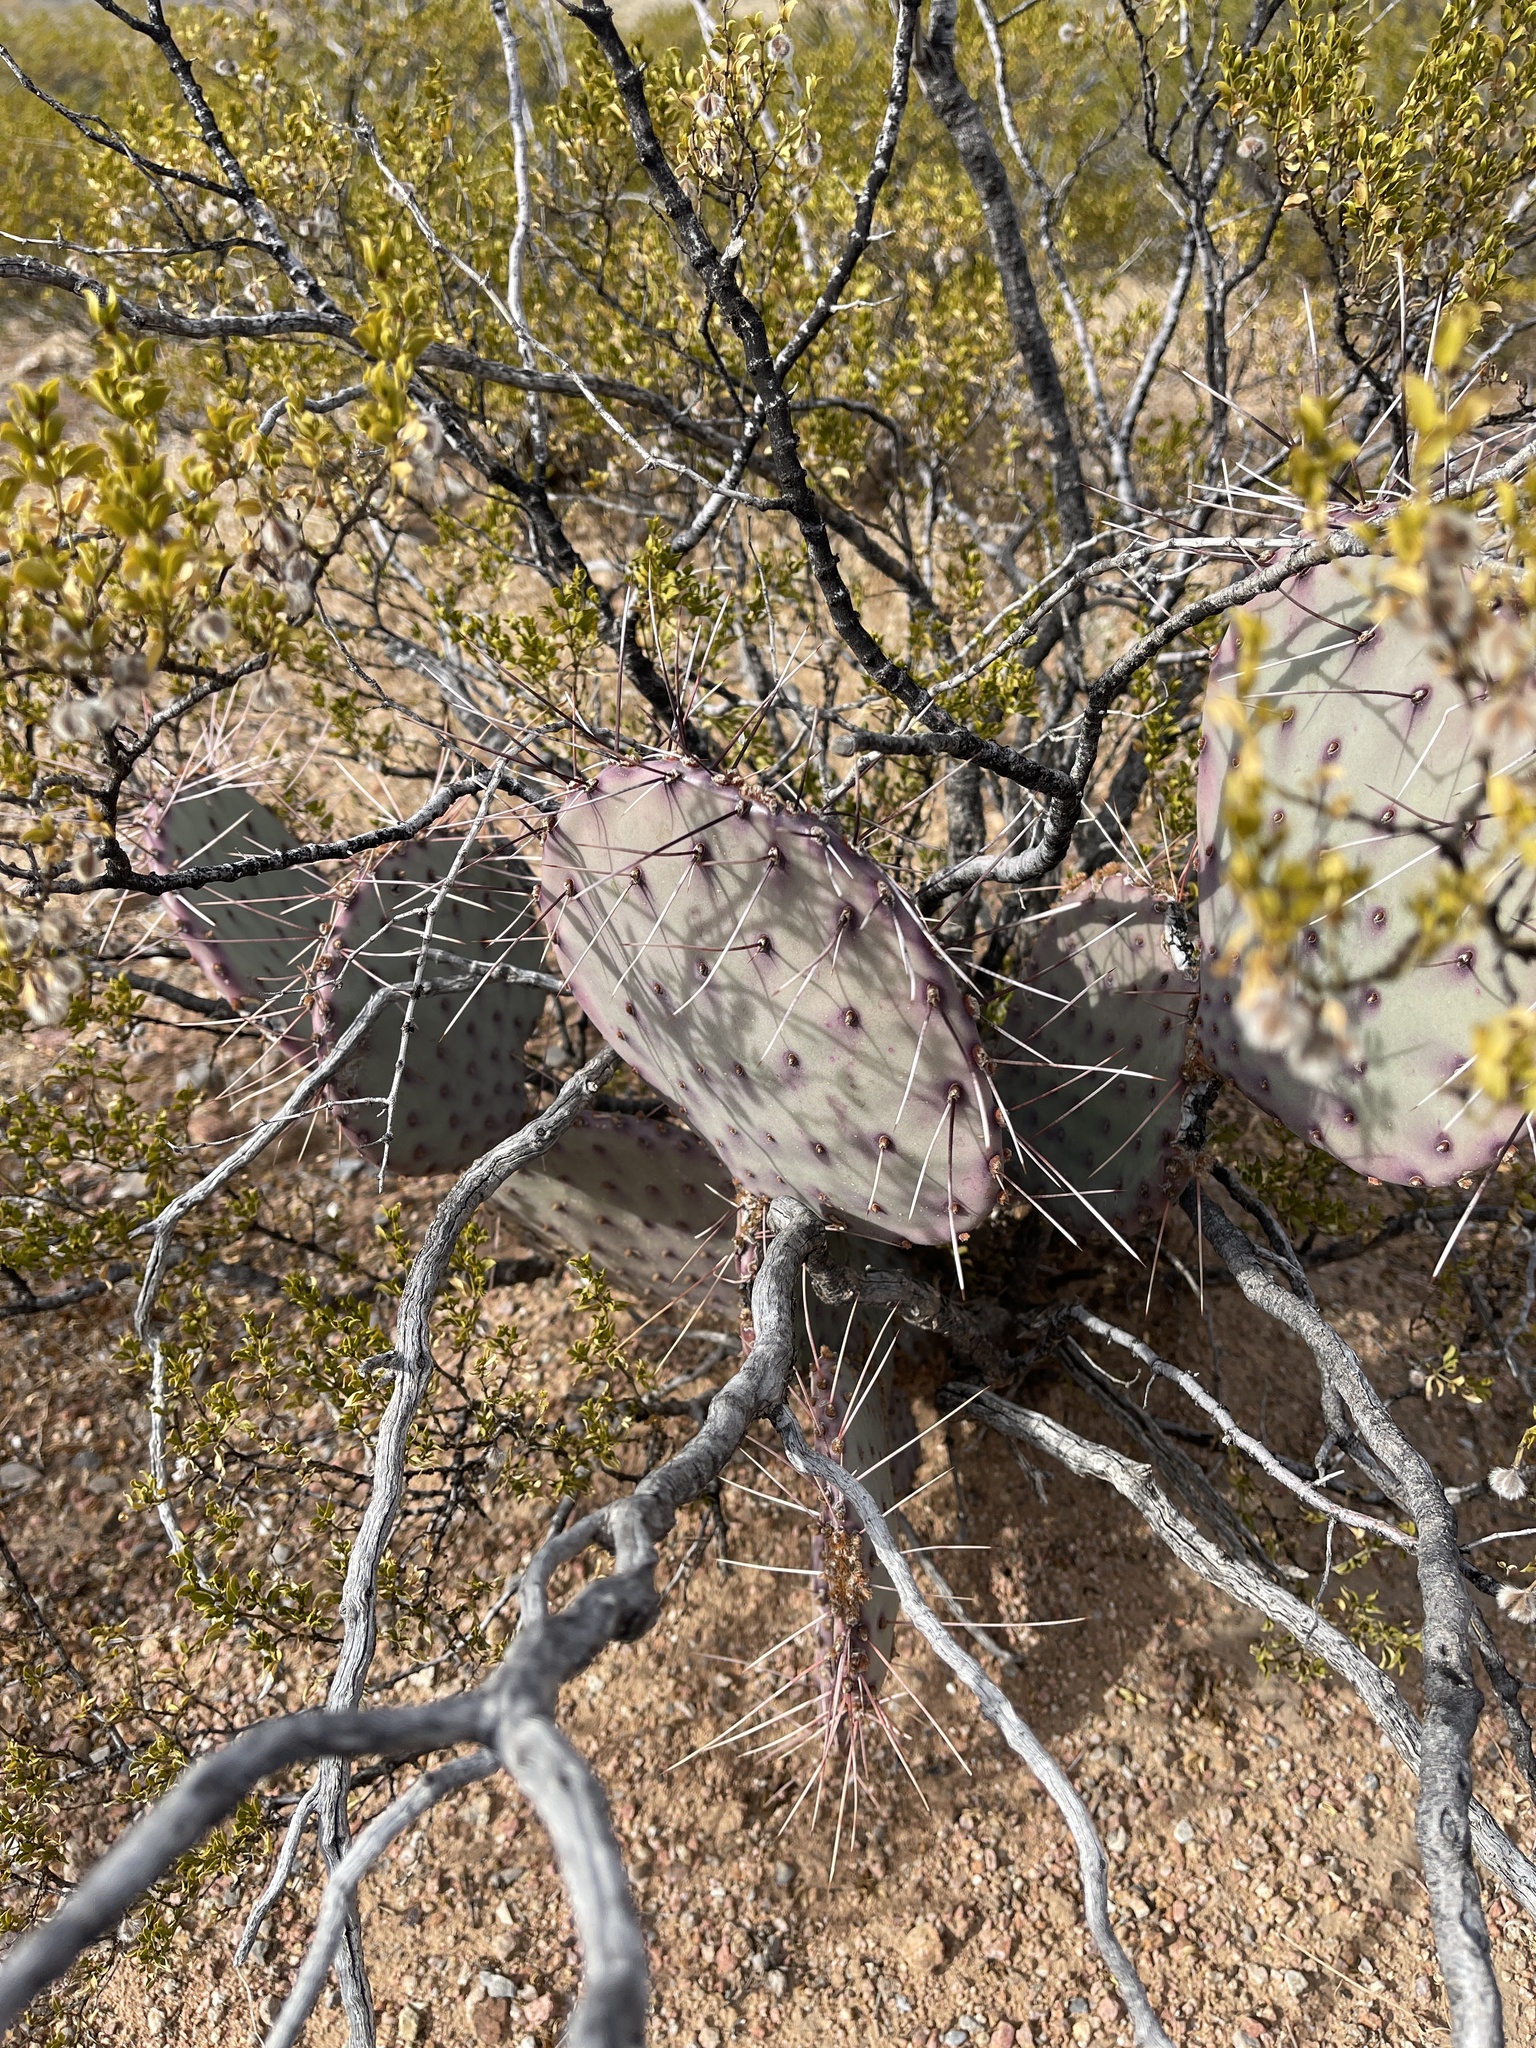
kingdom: Plantae
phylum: Tracheophyta
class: Magnoliopsida
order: Caryophyllales
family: Cactaceae
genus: Opuntia
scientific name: Opuntia macrocentra
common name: Purple prickly-pear
